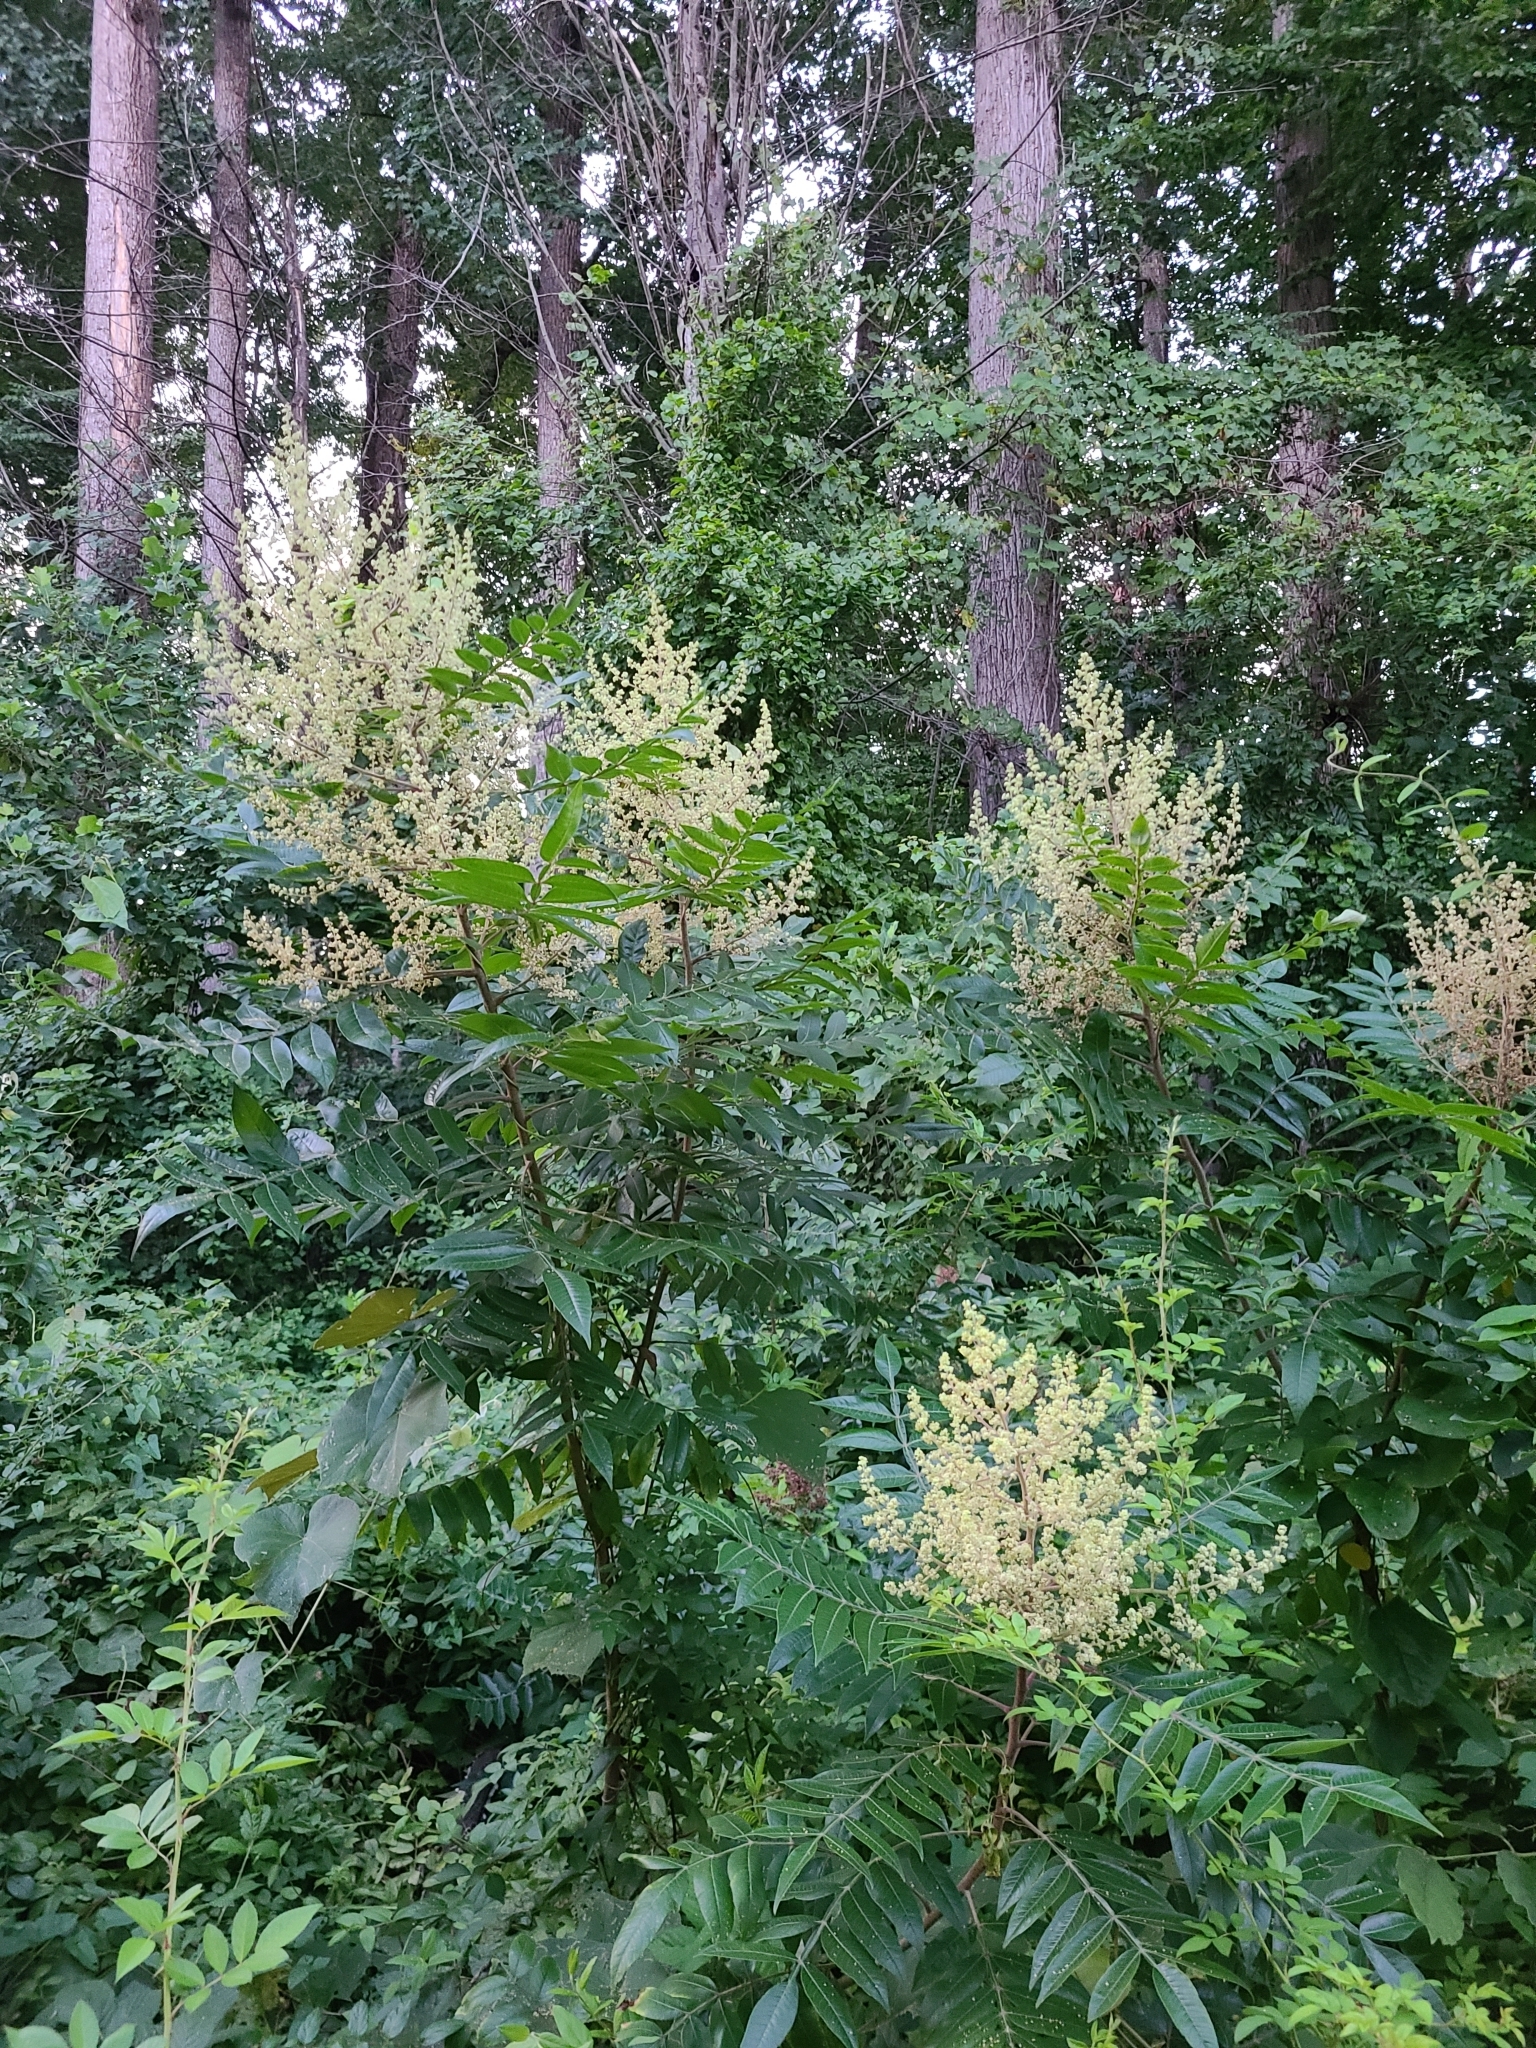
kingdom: Plantae
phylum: Tracheophyta
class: Magnoliopsida
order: Sapindales
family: Anacardiaceae
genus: Rhus
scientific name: Rhus copallina
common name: Shining sumac
